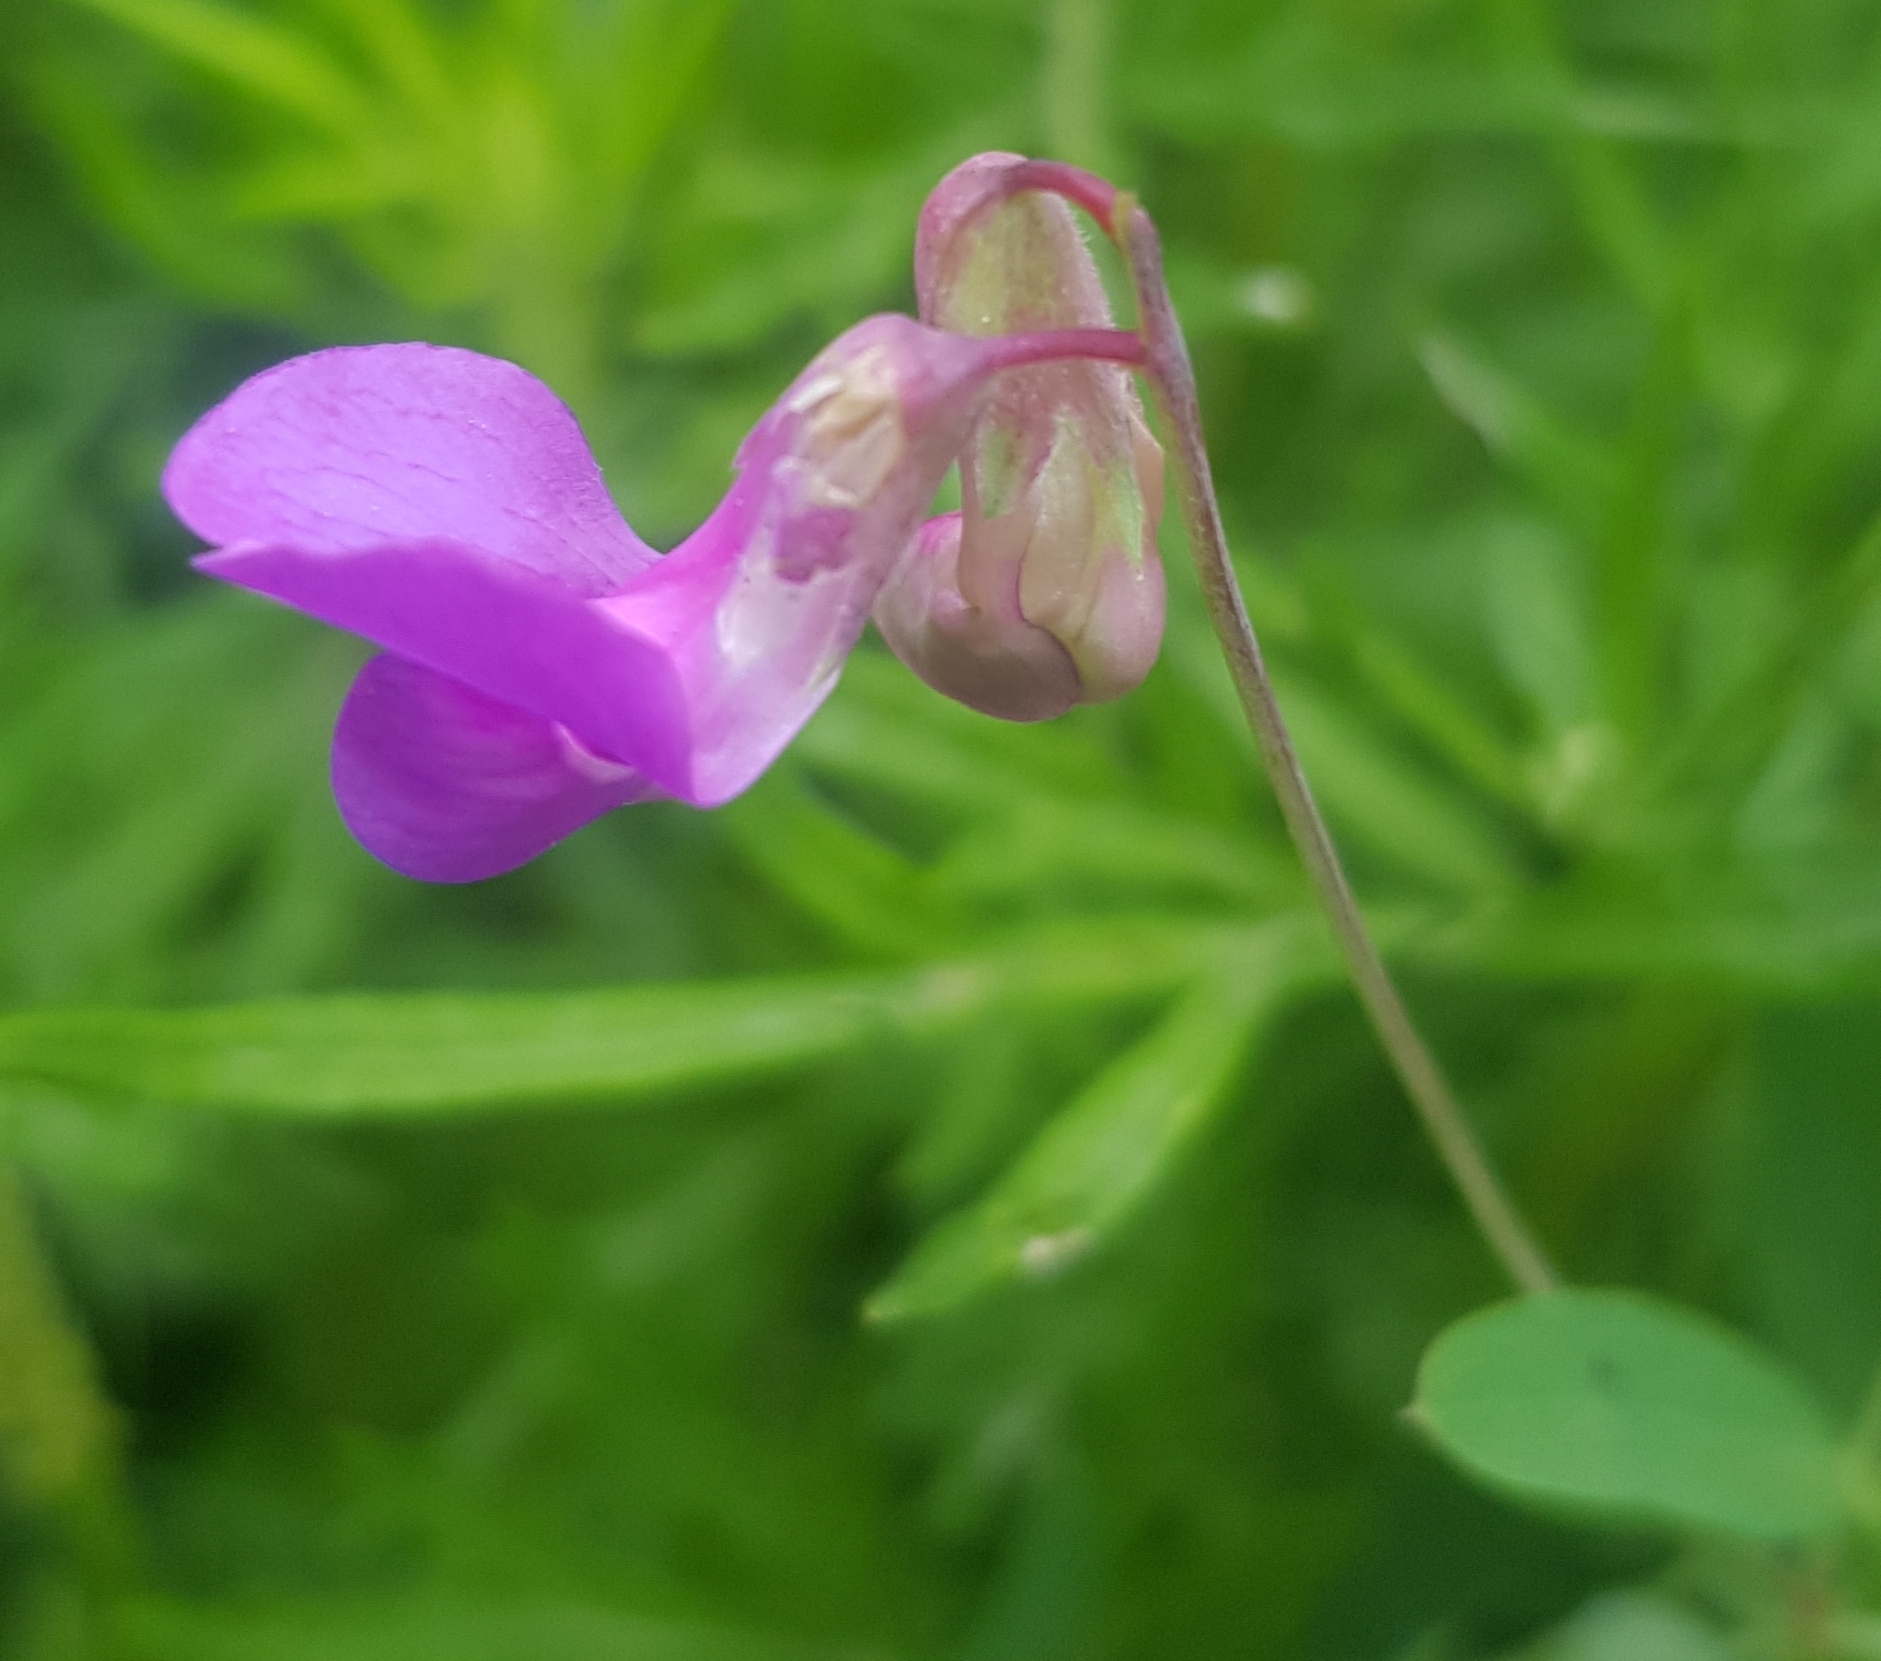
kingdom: Plantae
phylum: Tracheophyta
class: Magnoliopsida
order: Fabales
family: Fabaceae
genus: Lathyrus
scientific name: Lathyrus palustris
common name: Marsh pea
